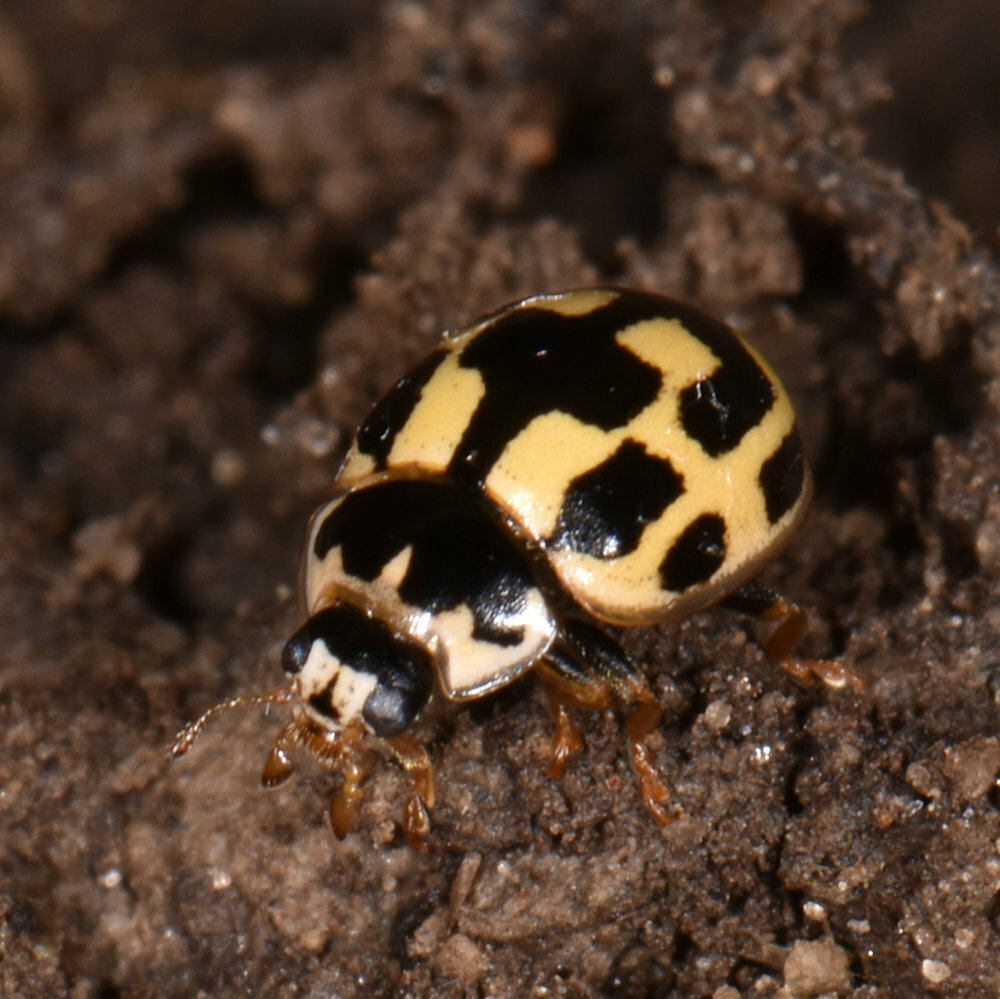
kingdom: Animalia
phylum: Arthropoda
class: Insecta
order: Coleoptera
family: Coccinellidae
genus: Propylaea
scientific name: Propylaea quatuordecimpunctata
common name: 14-spotted ladybird beetle
